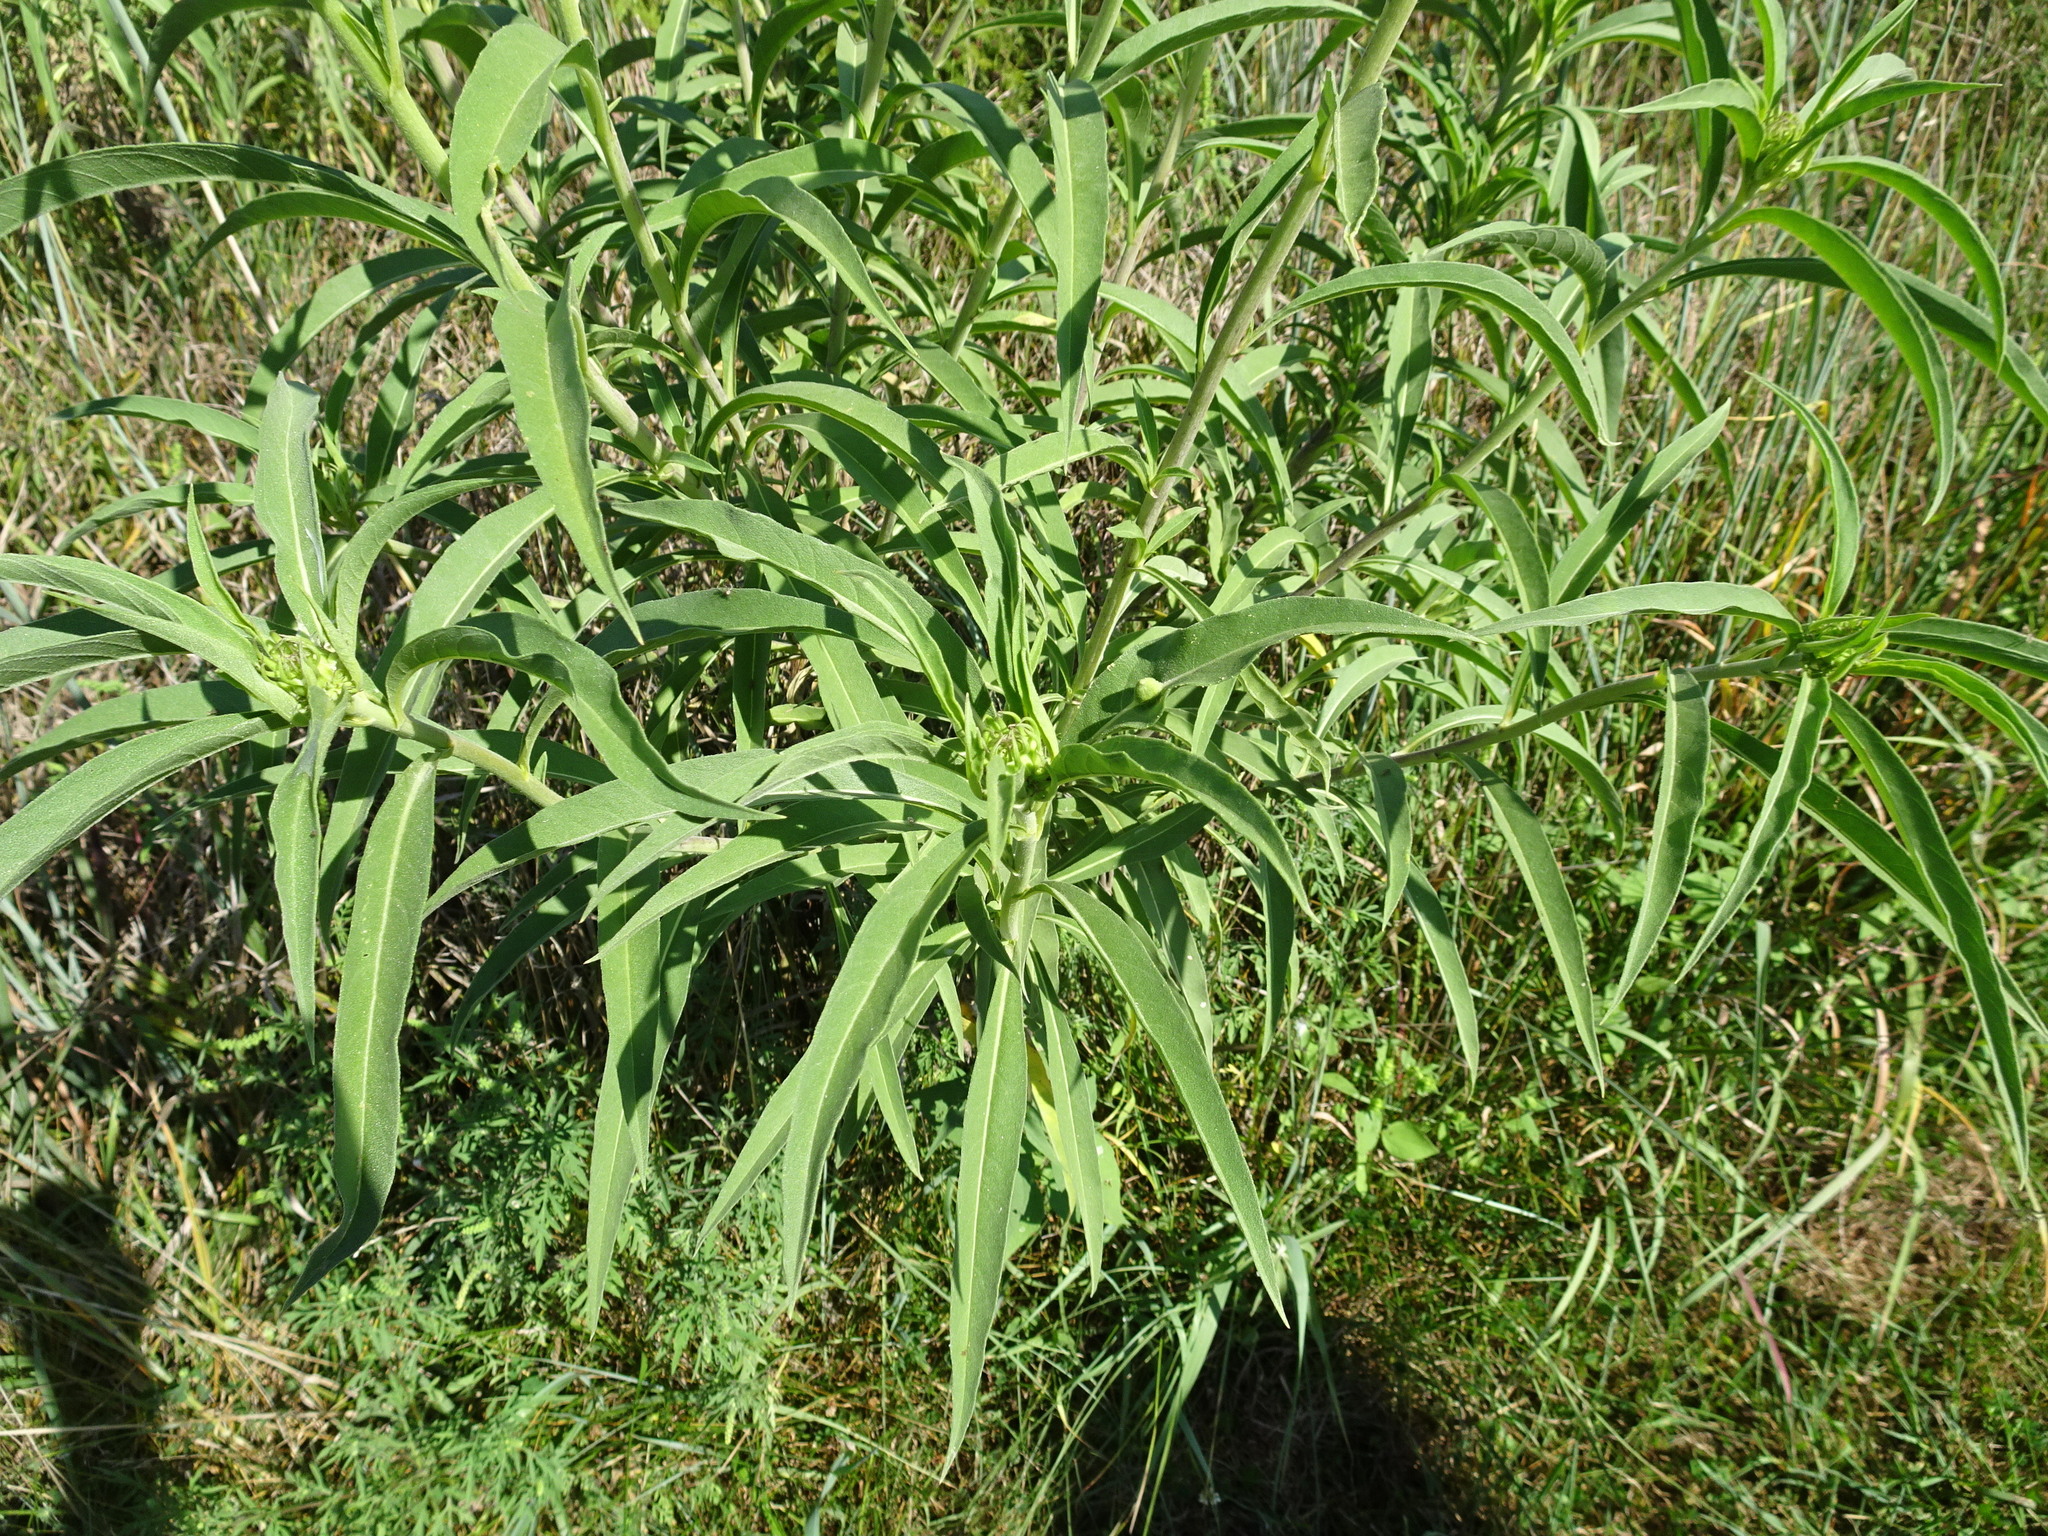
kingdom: Plantae
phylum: Tracheophyta
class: Magnoliopsida
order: Asterales
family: Asteraceae
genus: Helianthus
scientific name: Helianthus maximiliani
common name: Maximilian's sunflower
